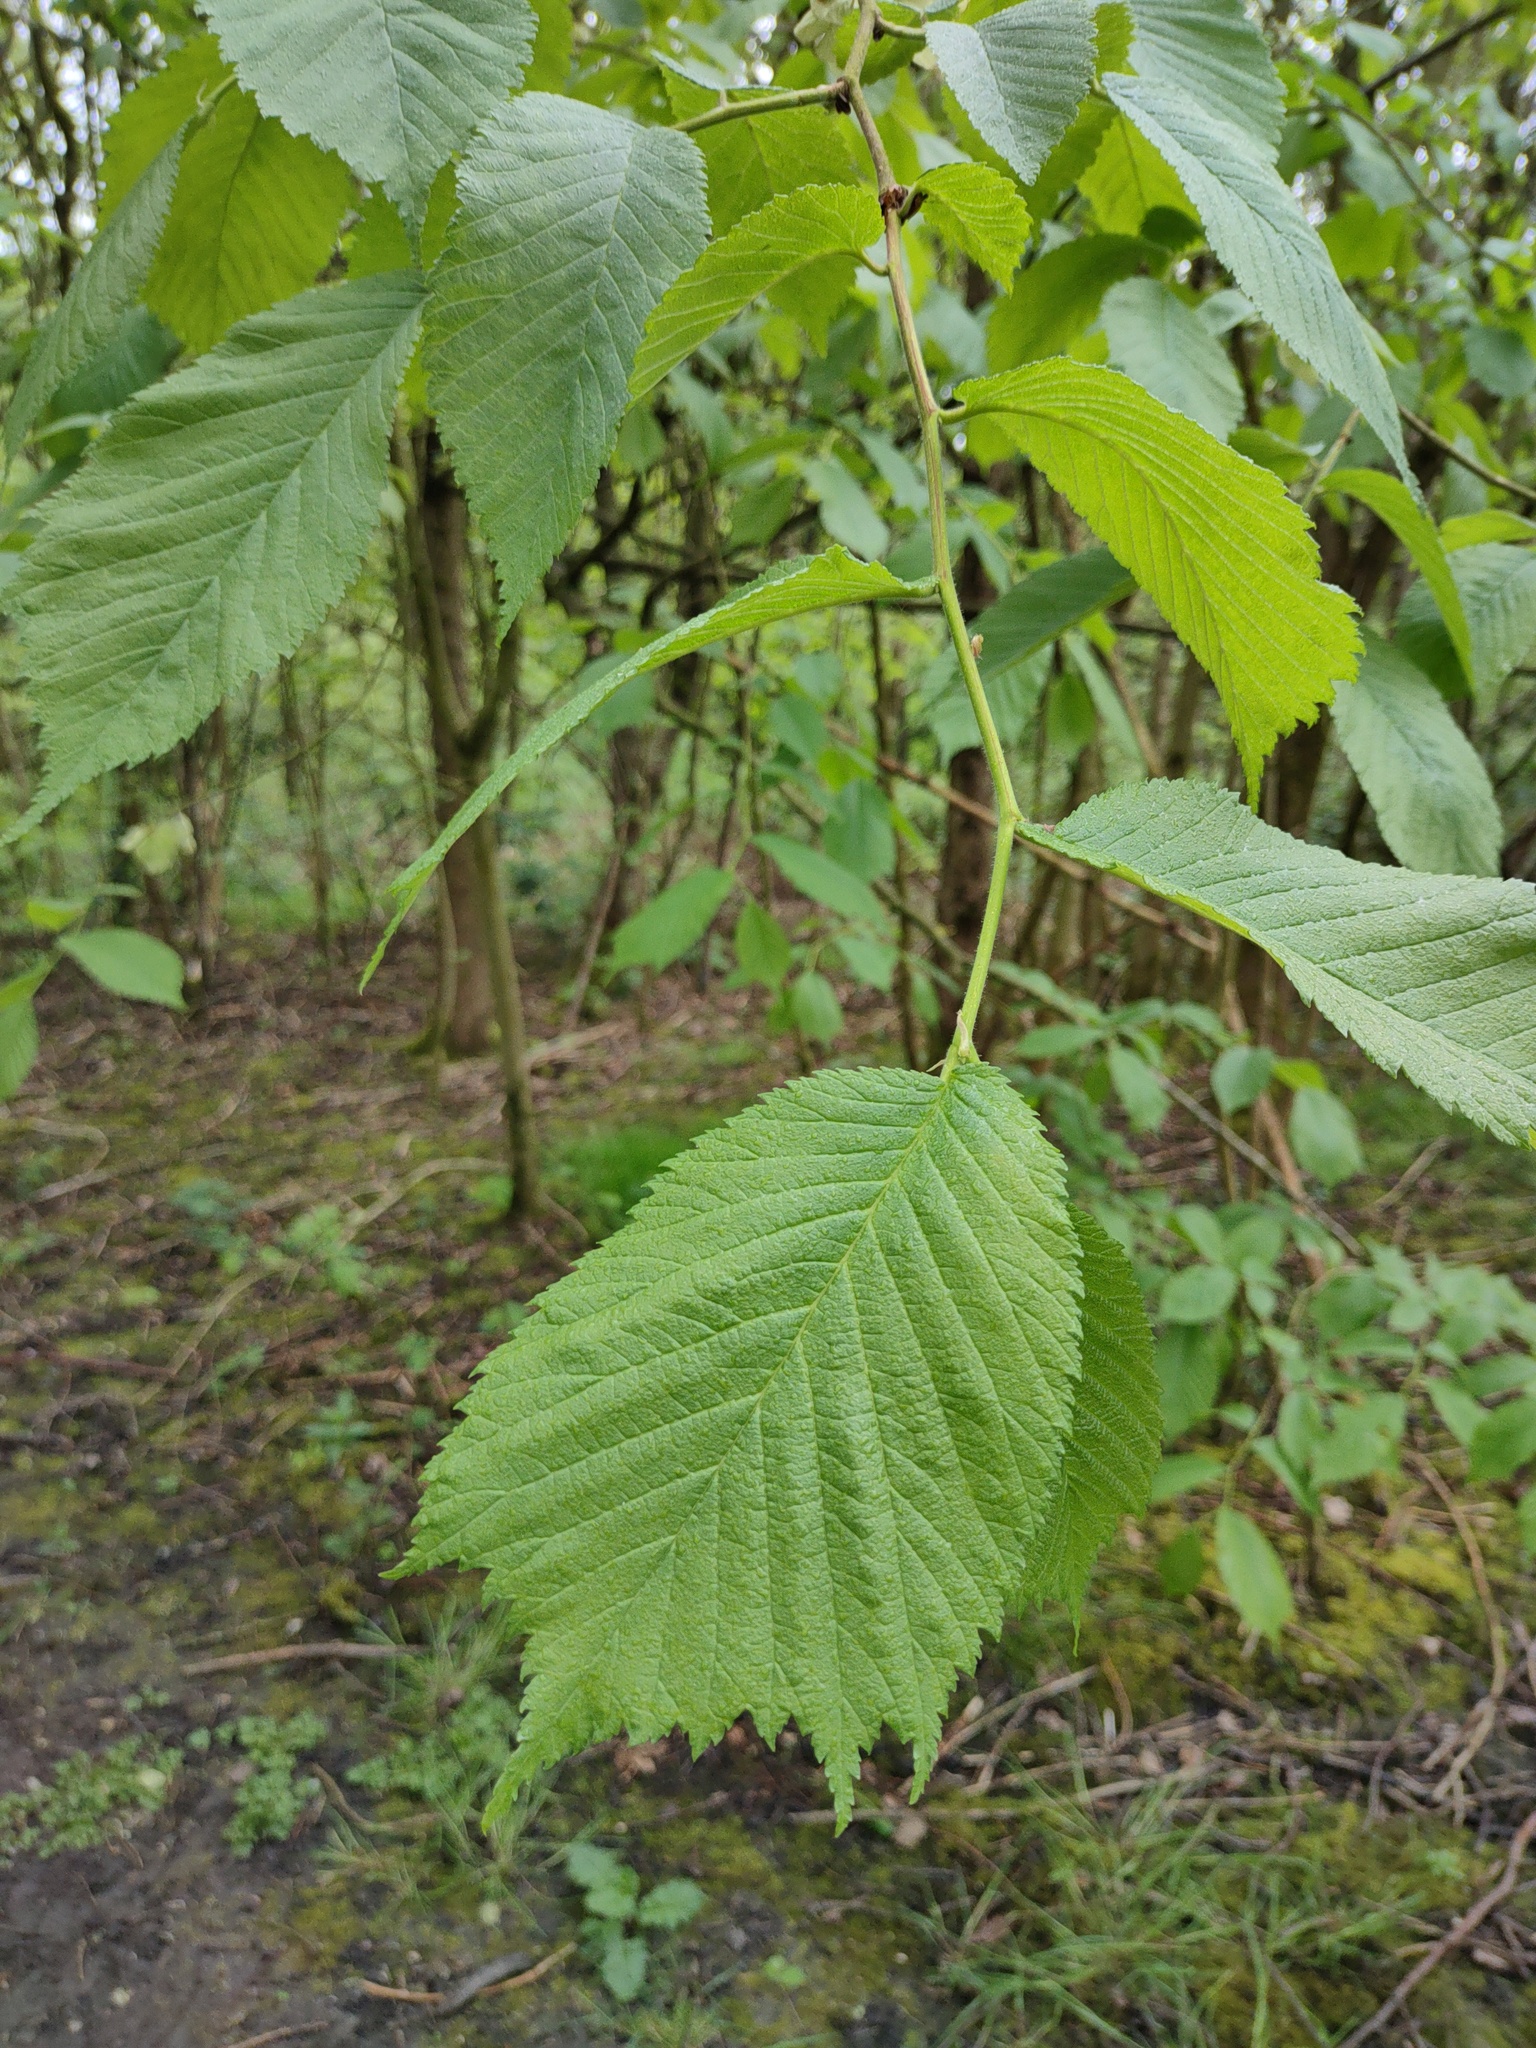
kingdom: Plantae
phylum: Tracheophyta
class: Magnoliopsida
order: Rosales
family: Ulmaceae
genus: Ulmus
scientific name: Ulmus glabra
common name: Wych elm
